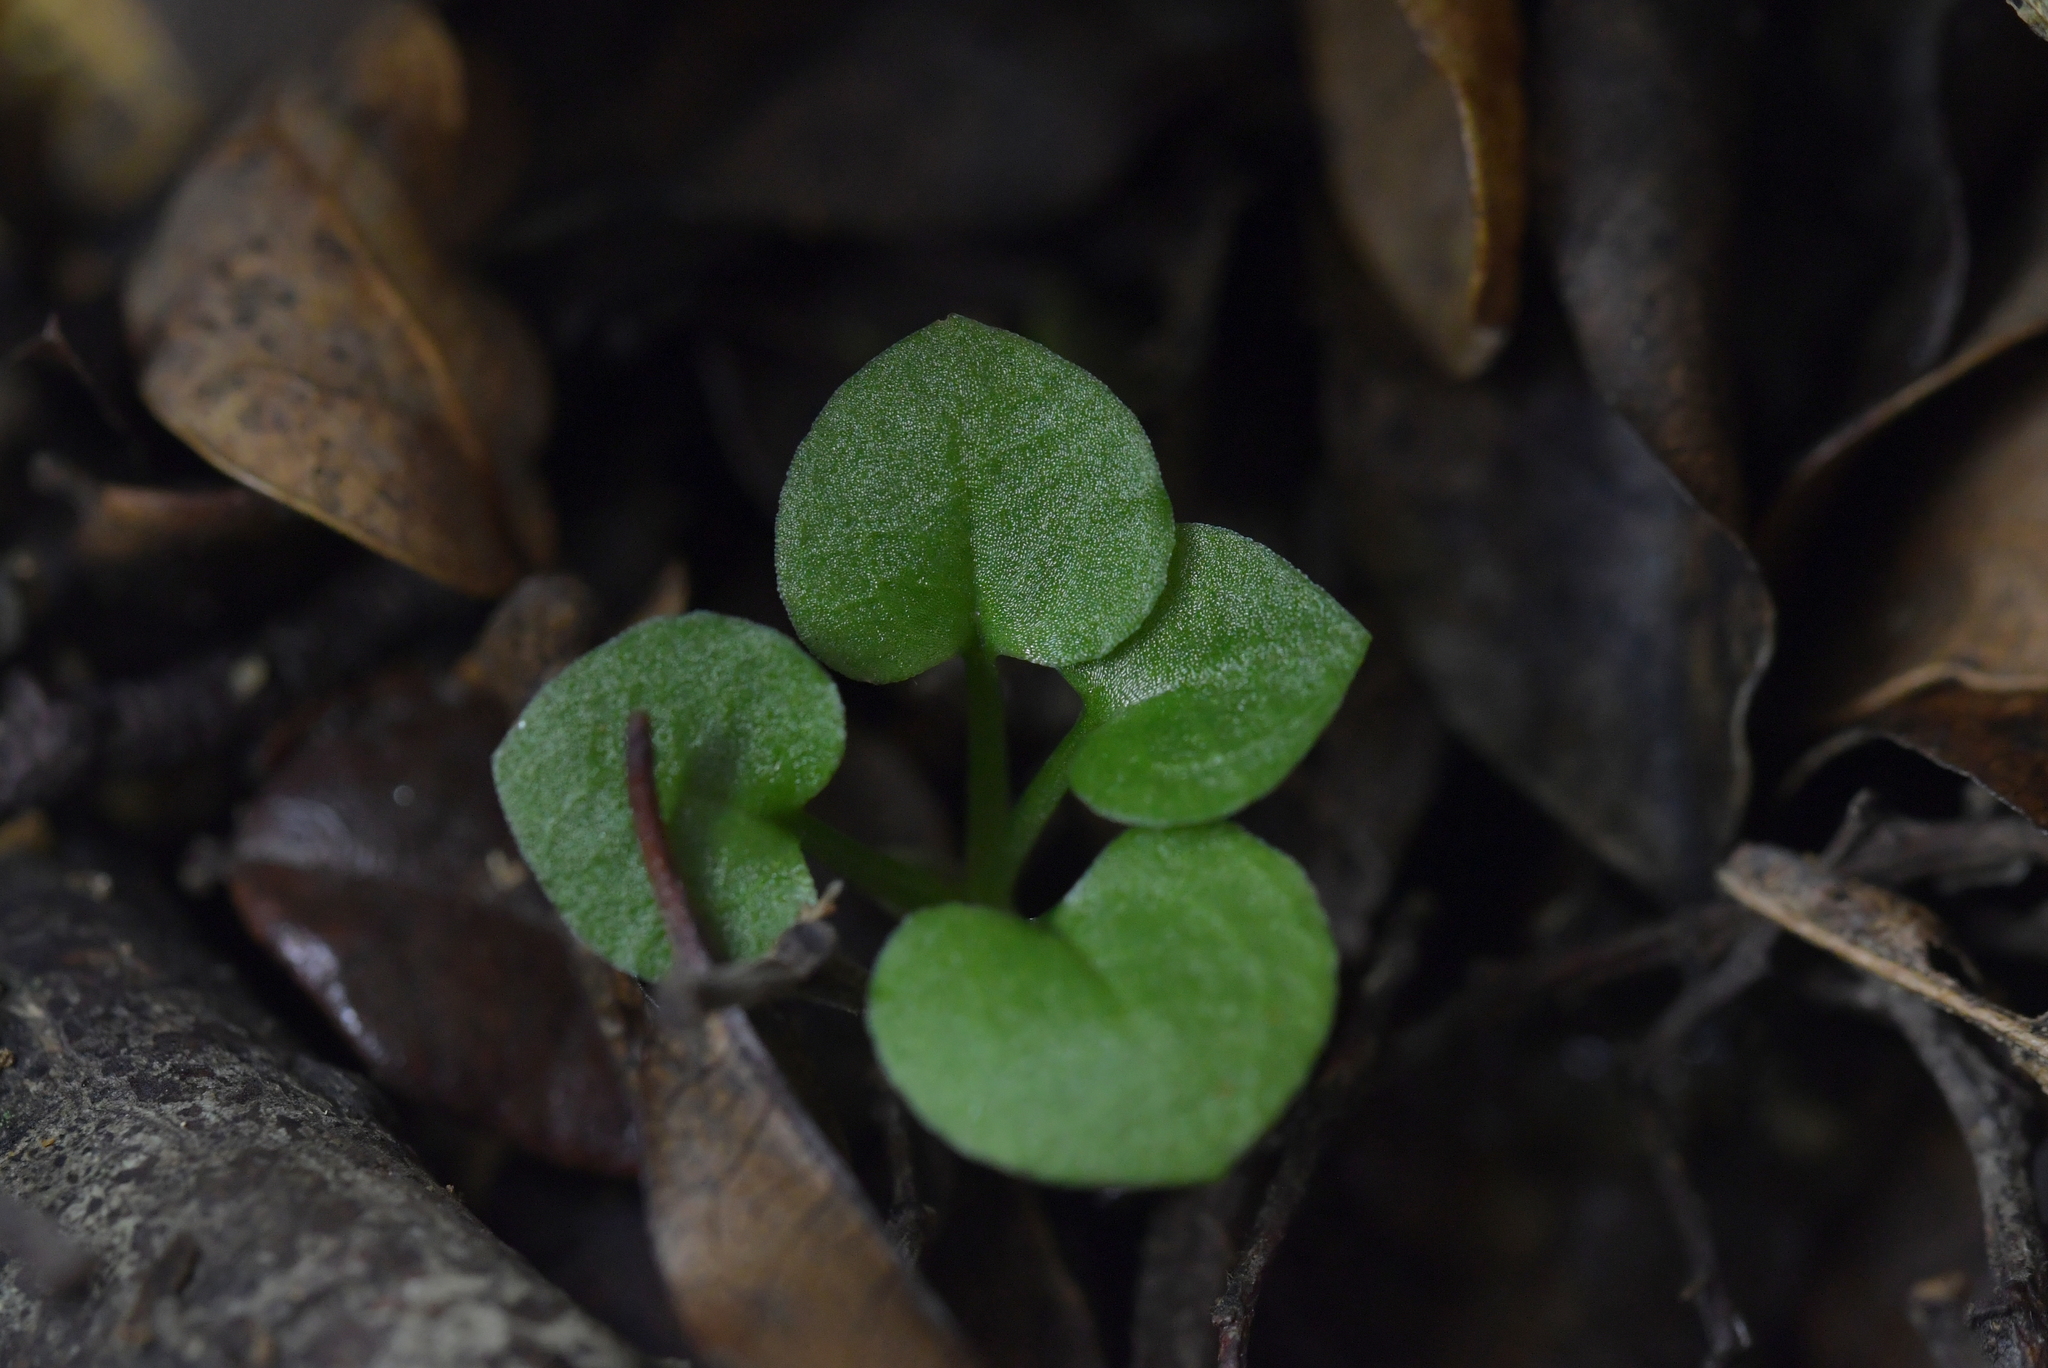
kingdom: Plantae
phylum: Tracheophyta
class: Liliopsida
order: Asparagales
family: Orchidaceae
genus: Pterostylis
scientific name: Pterostylis alobula
